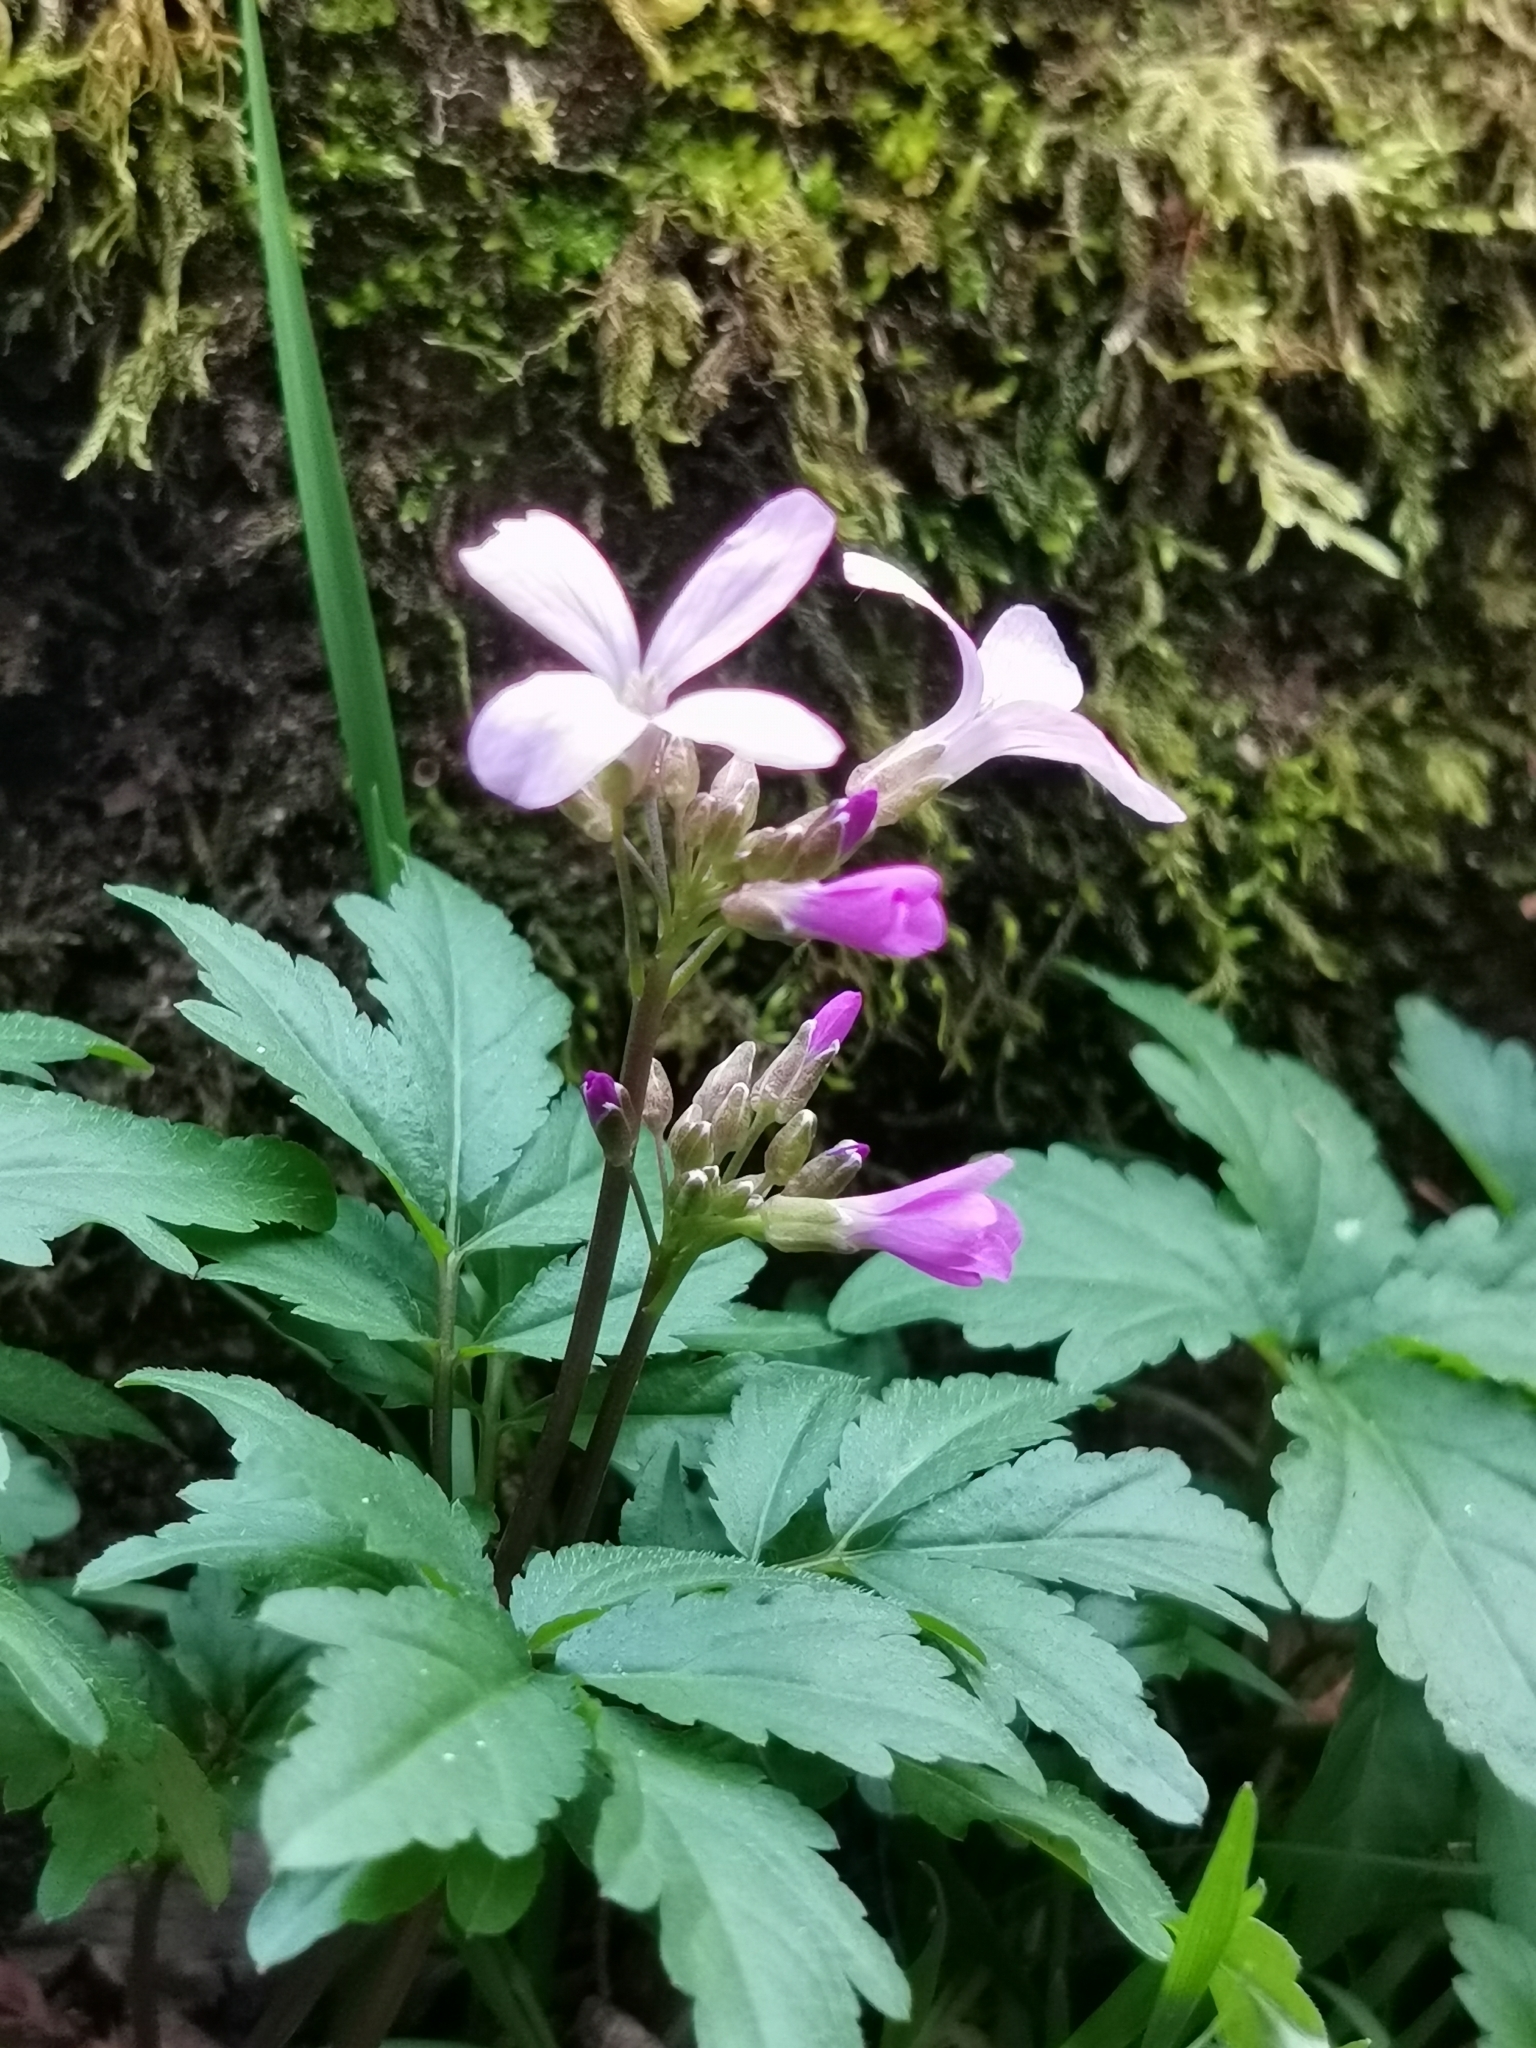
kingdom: Plantae
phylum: Tracheophyta
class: Magnoliopsida
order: Brassicales
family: Brassicaceae
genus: Cardamine
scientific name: Cardamine quinquefolia
